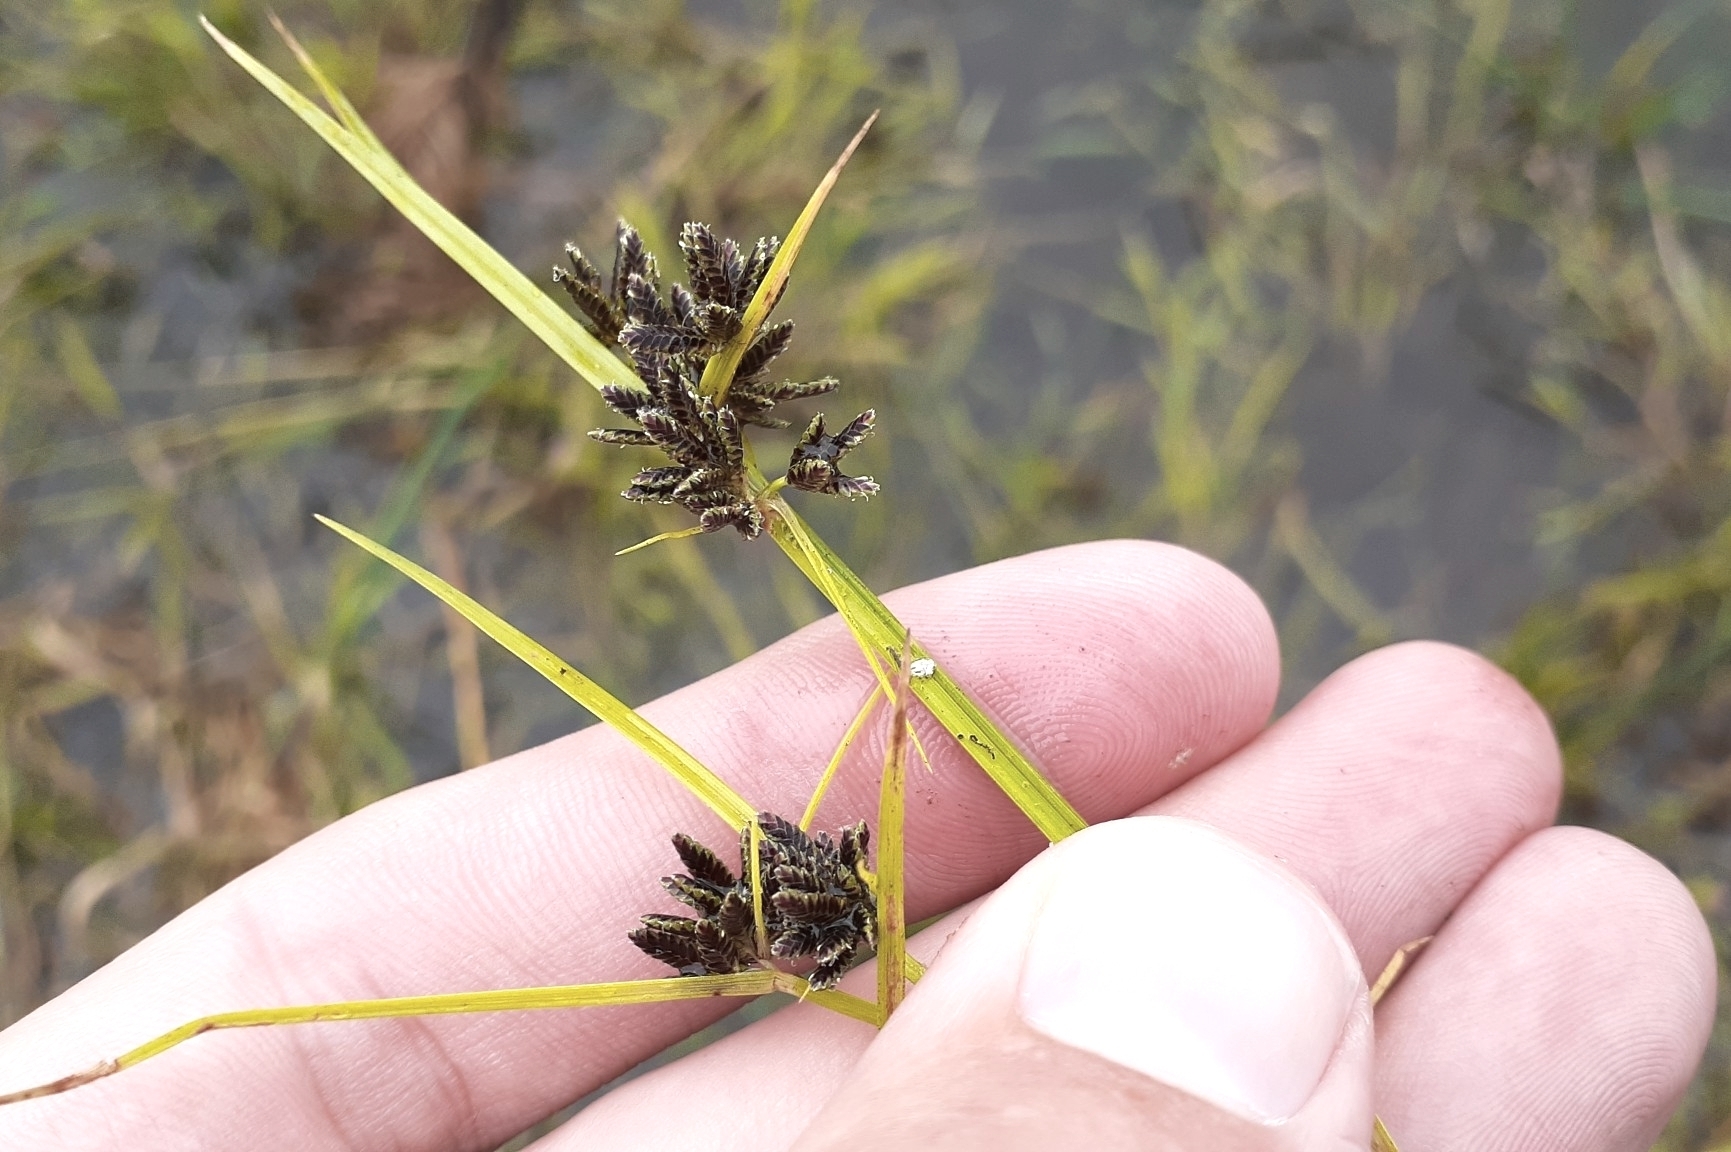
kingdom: Plantae
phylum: Tracheophyta
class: Liliopsida
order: Poales
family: Cyperaceae
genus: Cyperus
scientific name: Cyperus fuscus
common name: Brown galingale
